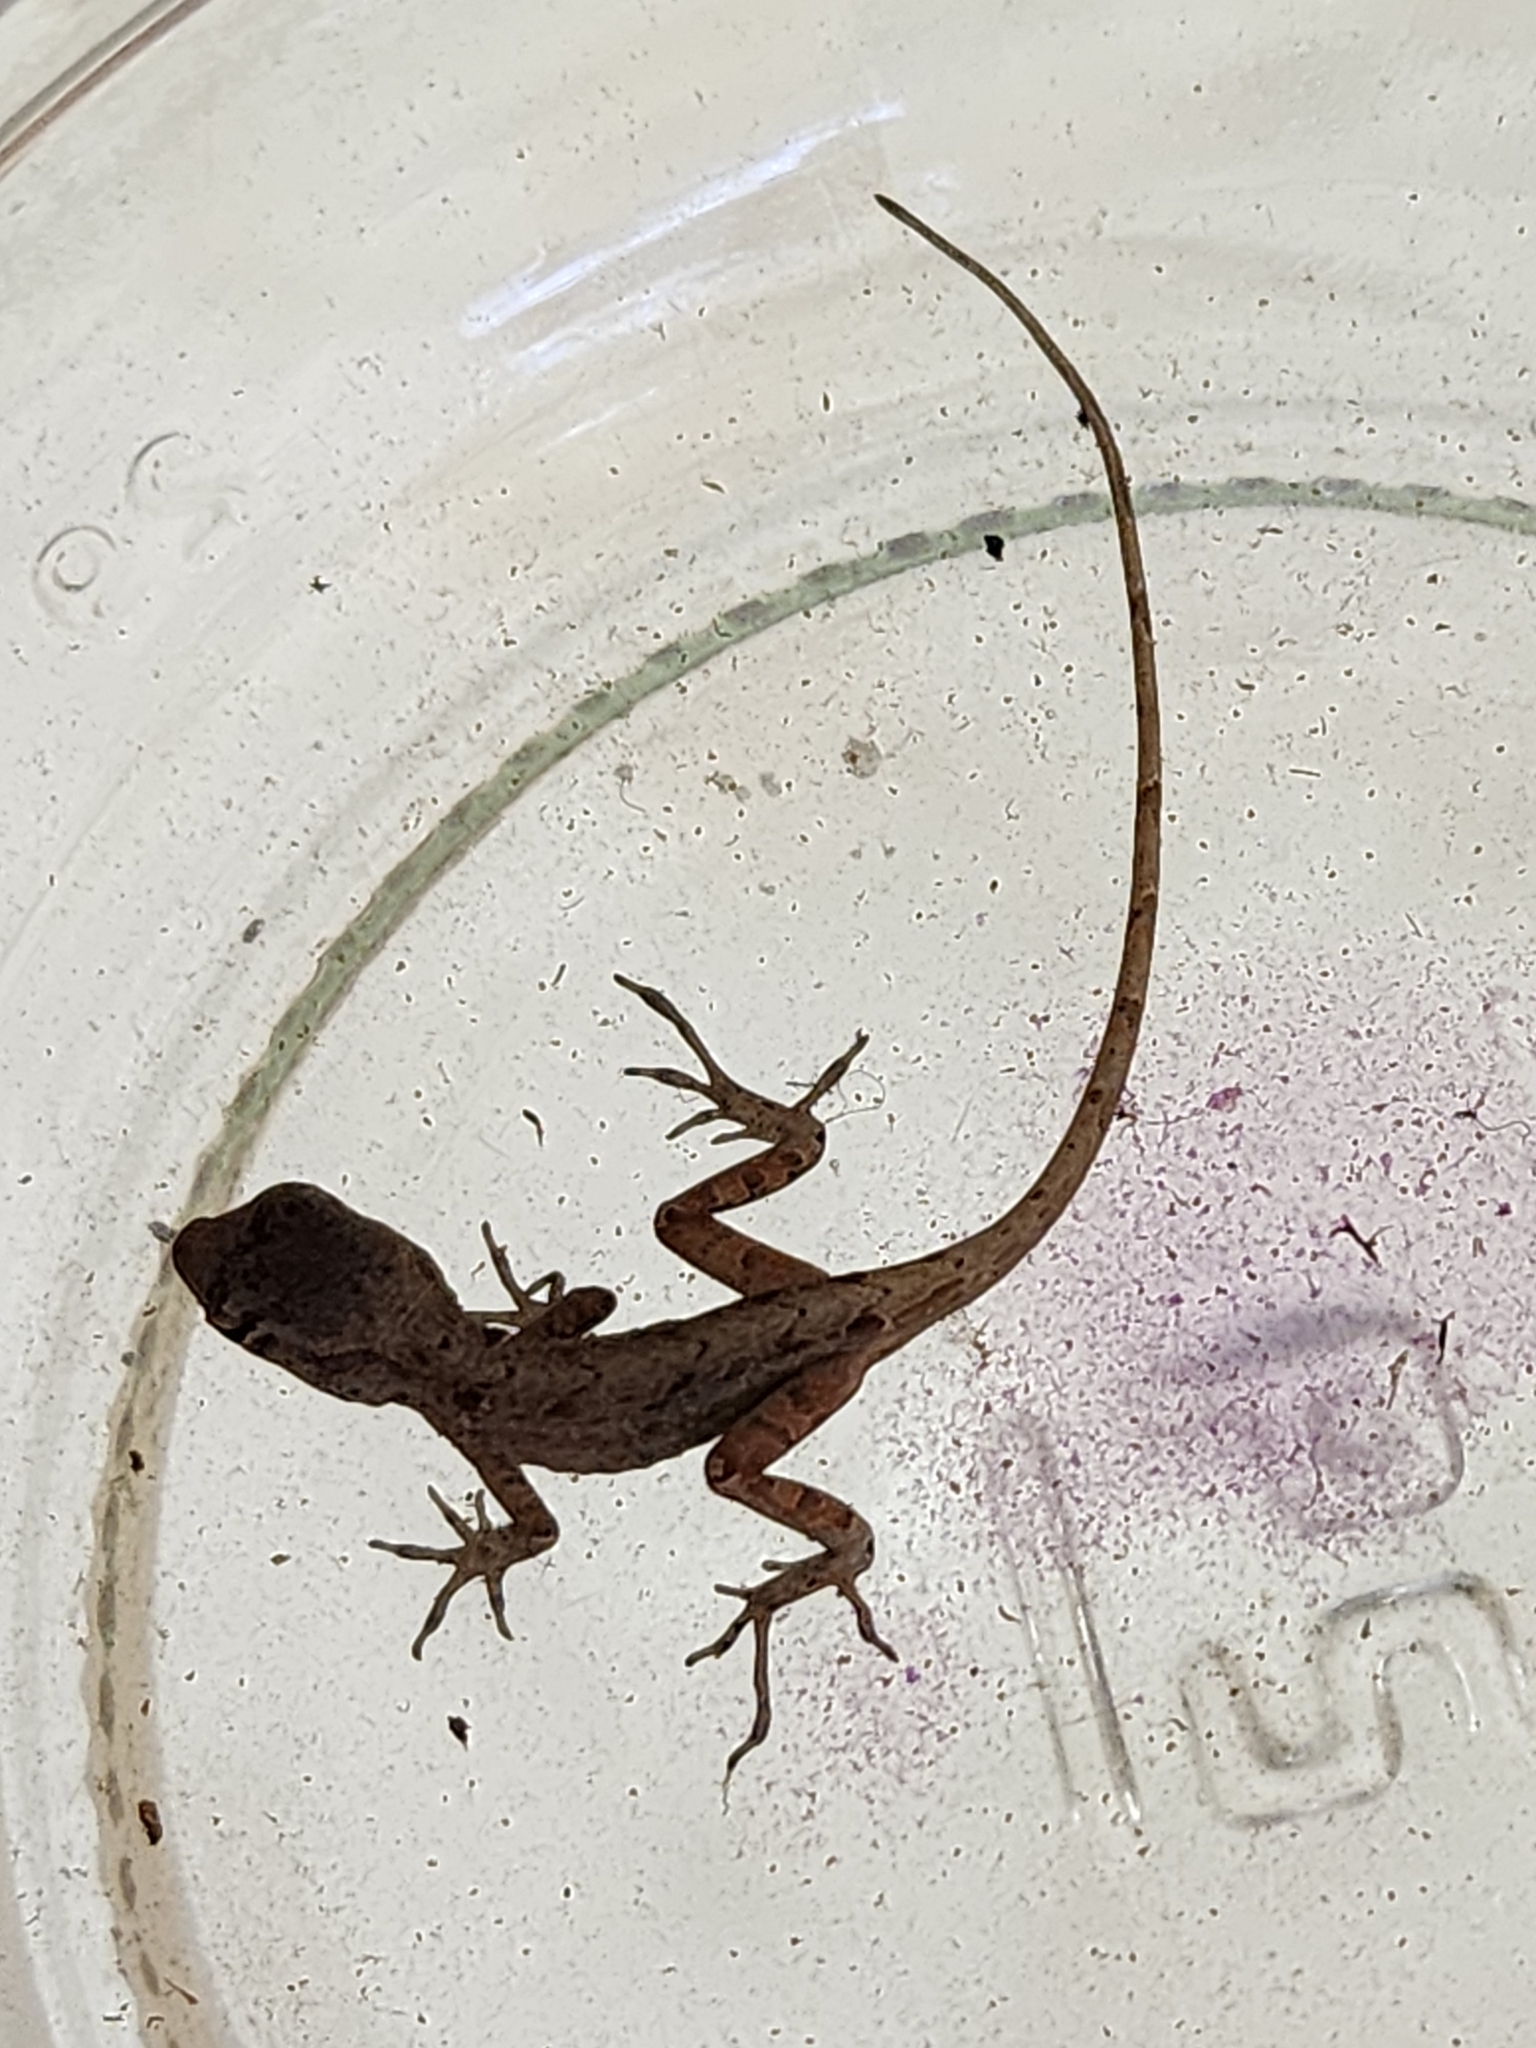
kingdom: Animalia
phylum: Chordata
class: Squamata
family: Dactyloidae
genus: Anolis
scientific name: Anolis sagrei
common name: Brown anole
